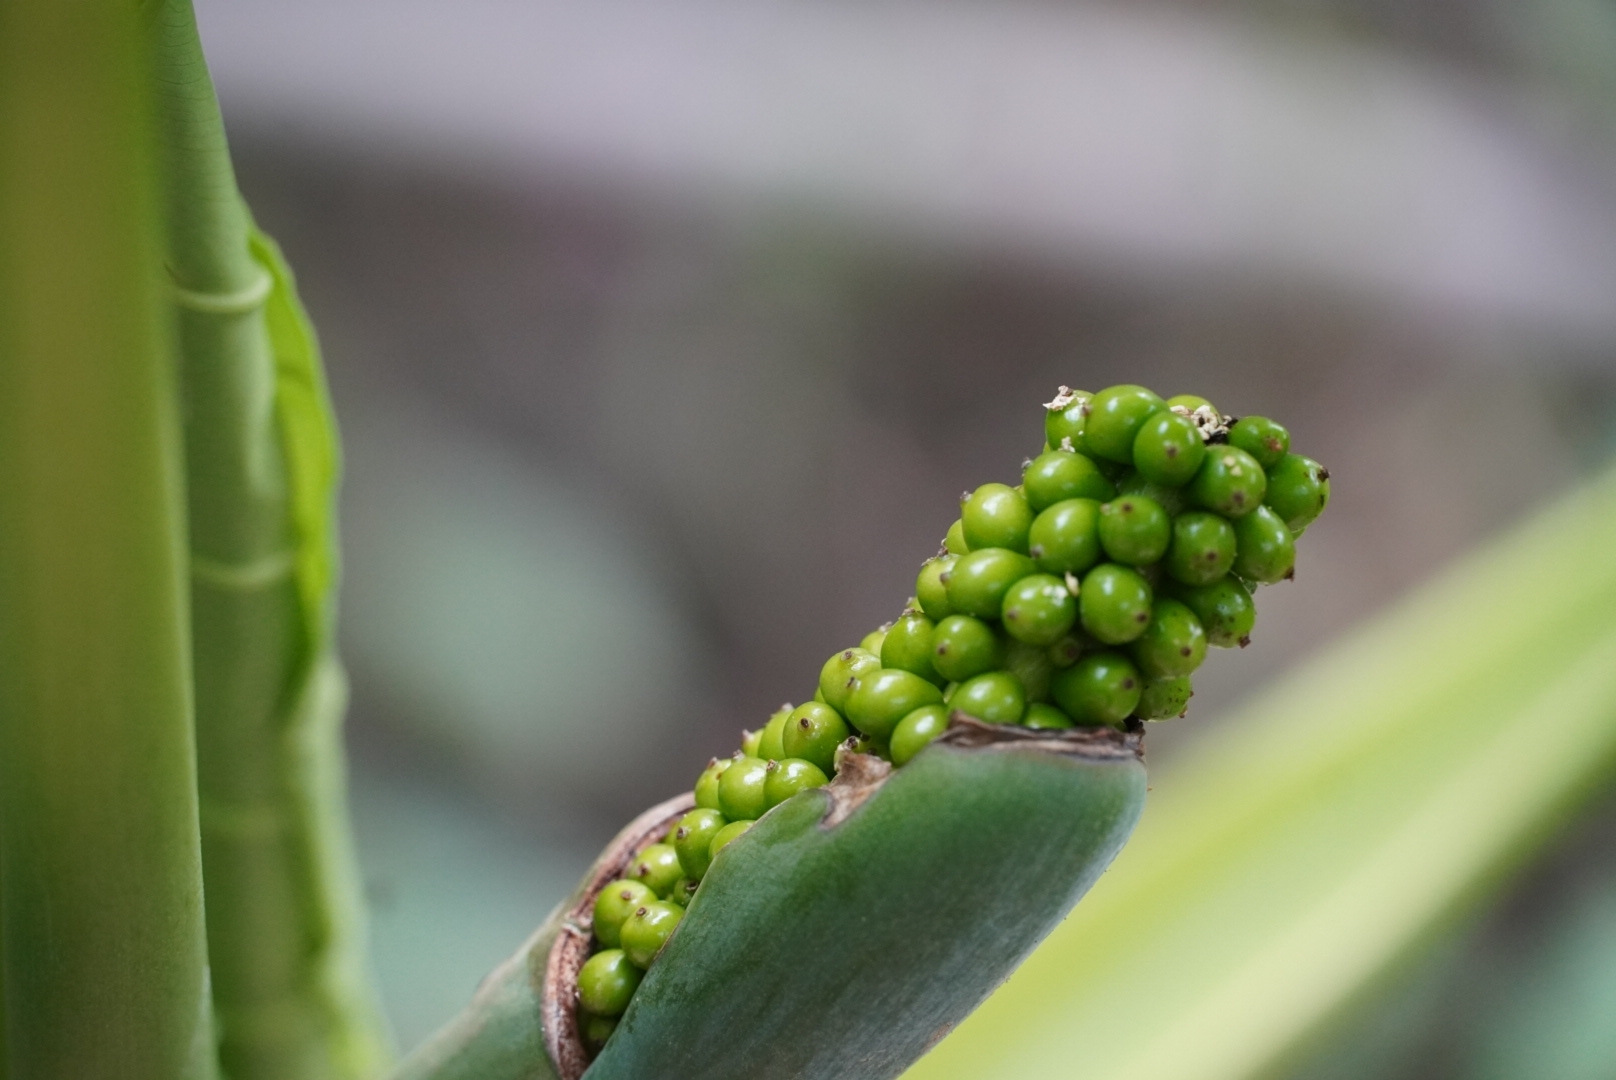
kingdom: Plantae
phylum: Tracheophyta
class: Liliopsida
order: Alismatales
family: Araceae
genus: Alocasia
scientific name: Alocasia odora
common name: Asian taro
